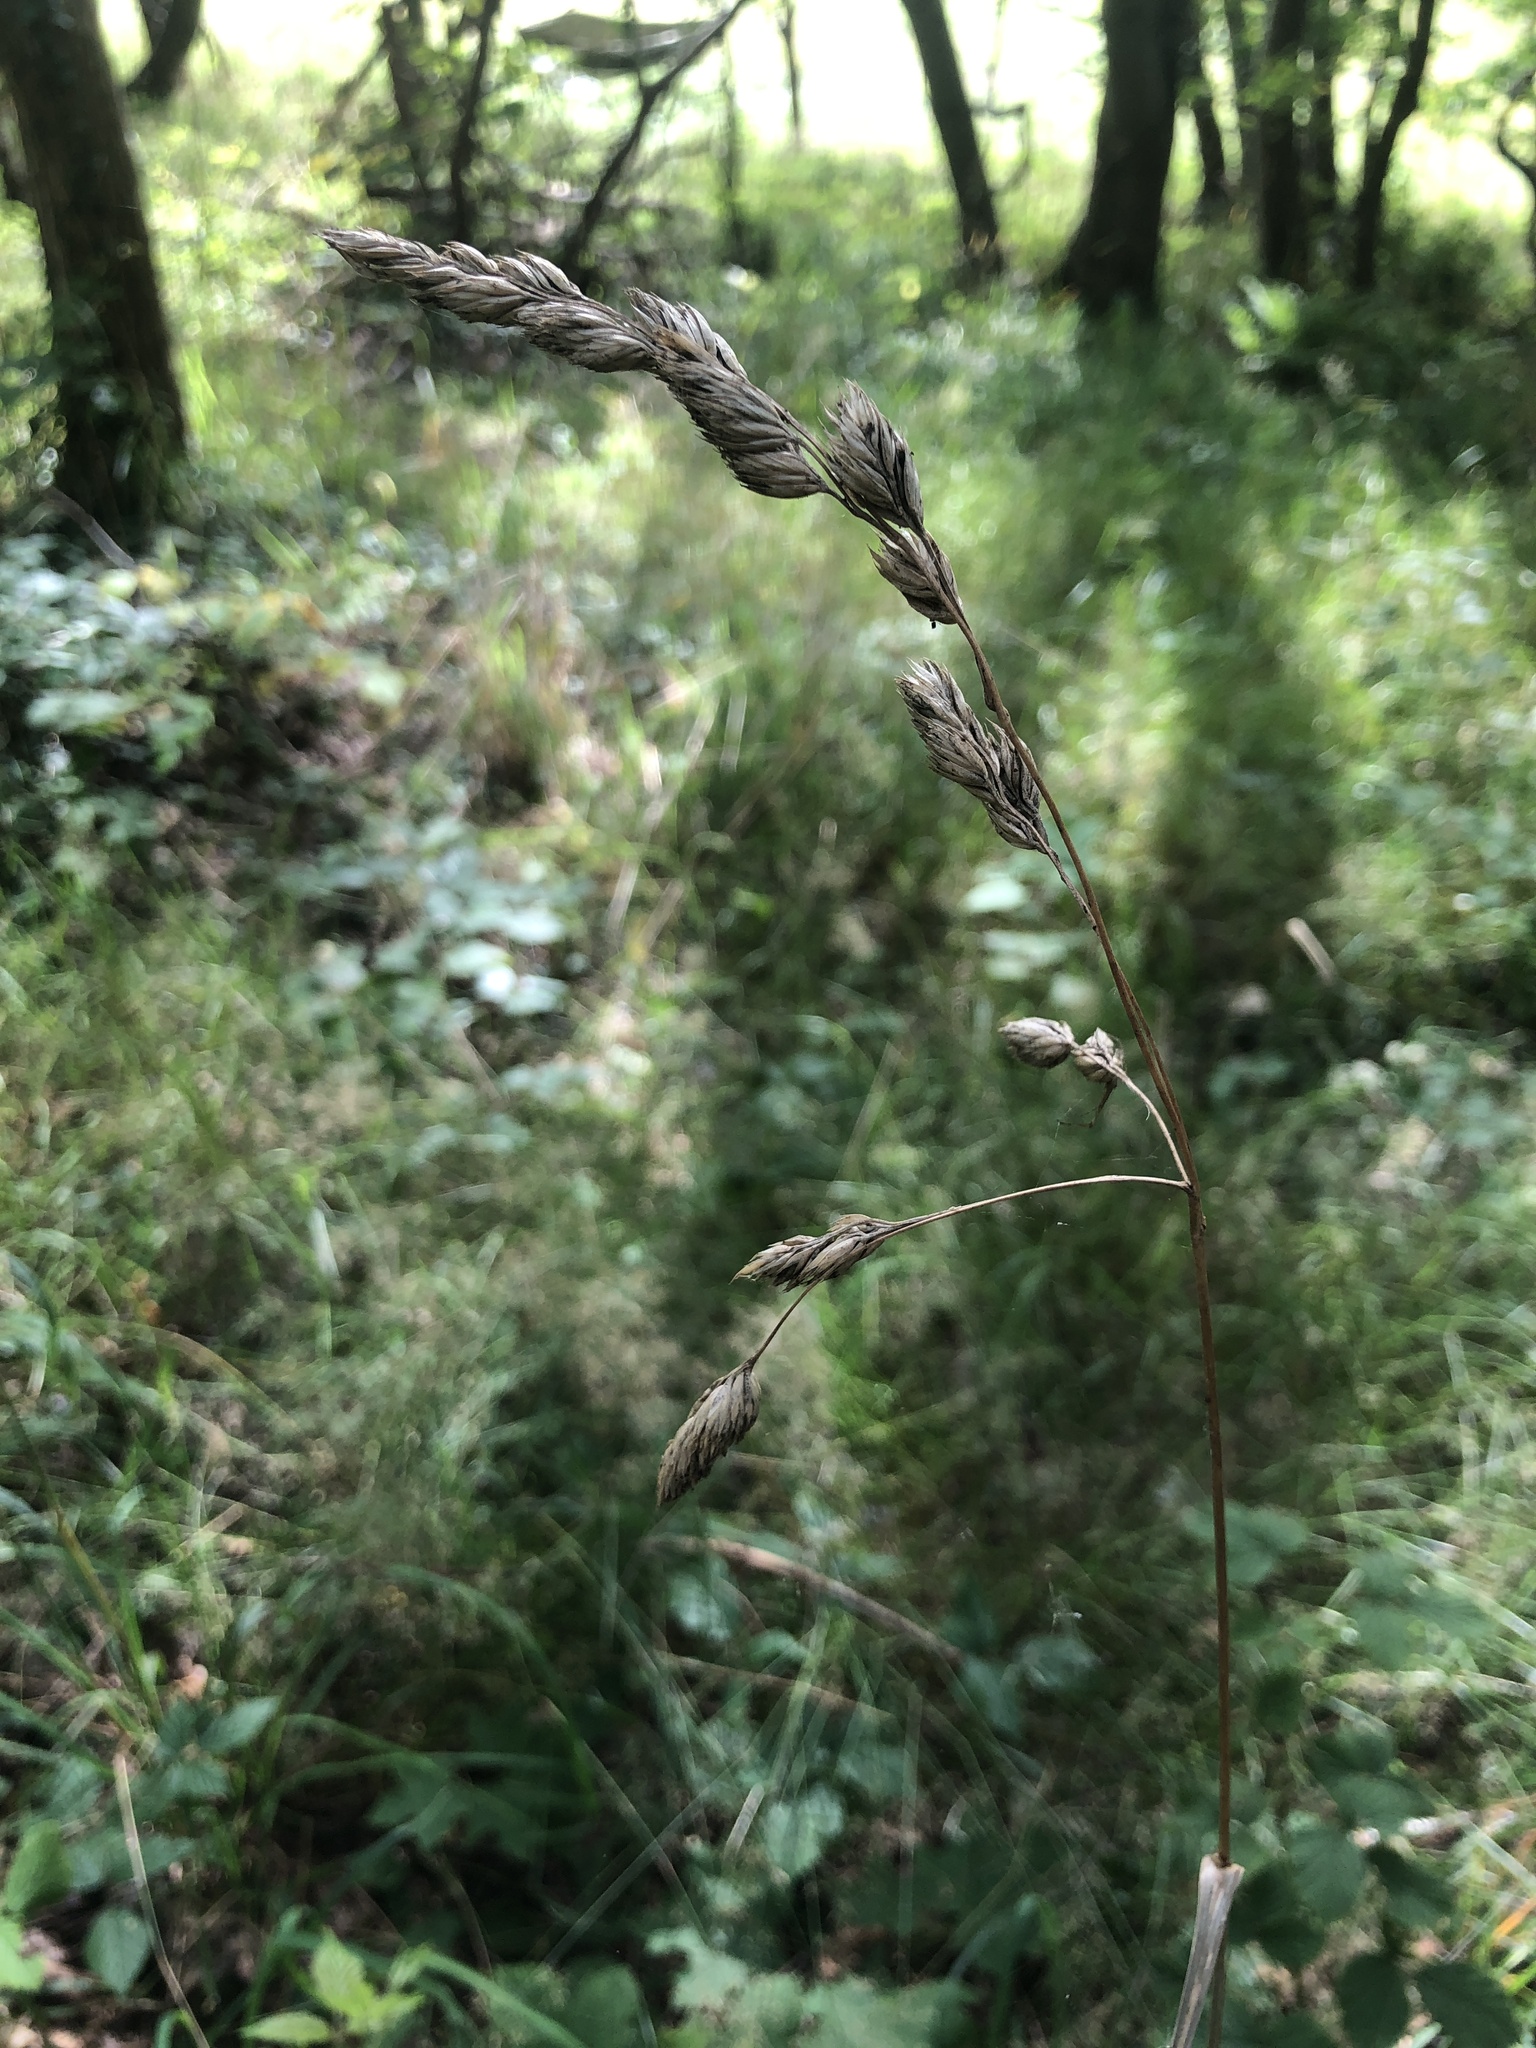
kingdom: Plantae
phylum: Tracheophyta
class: Liliopsida
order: Poales
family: Poaceae
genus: Dactylis
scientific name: Dactylis glomerata
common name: Orchardgrass
